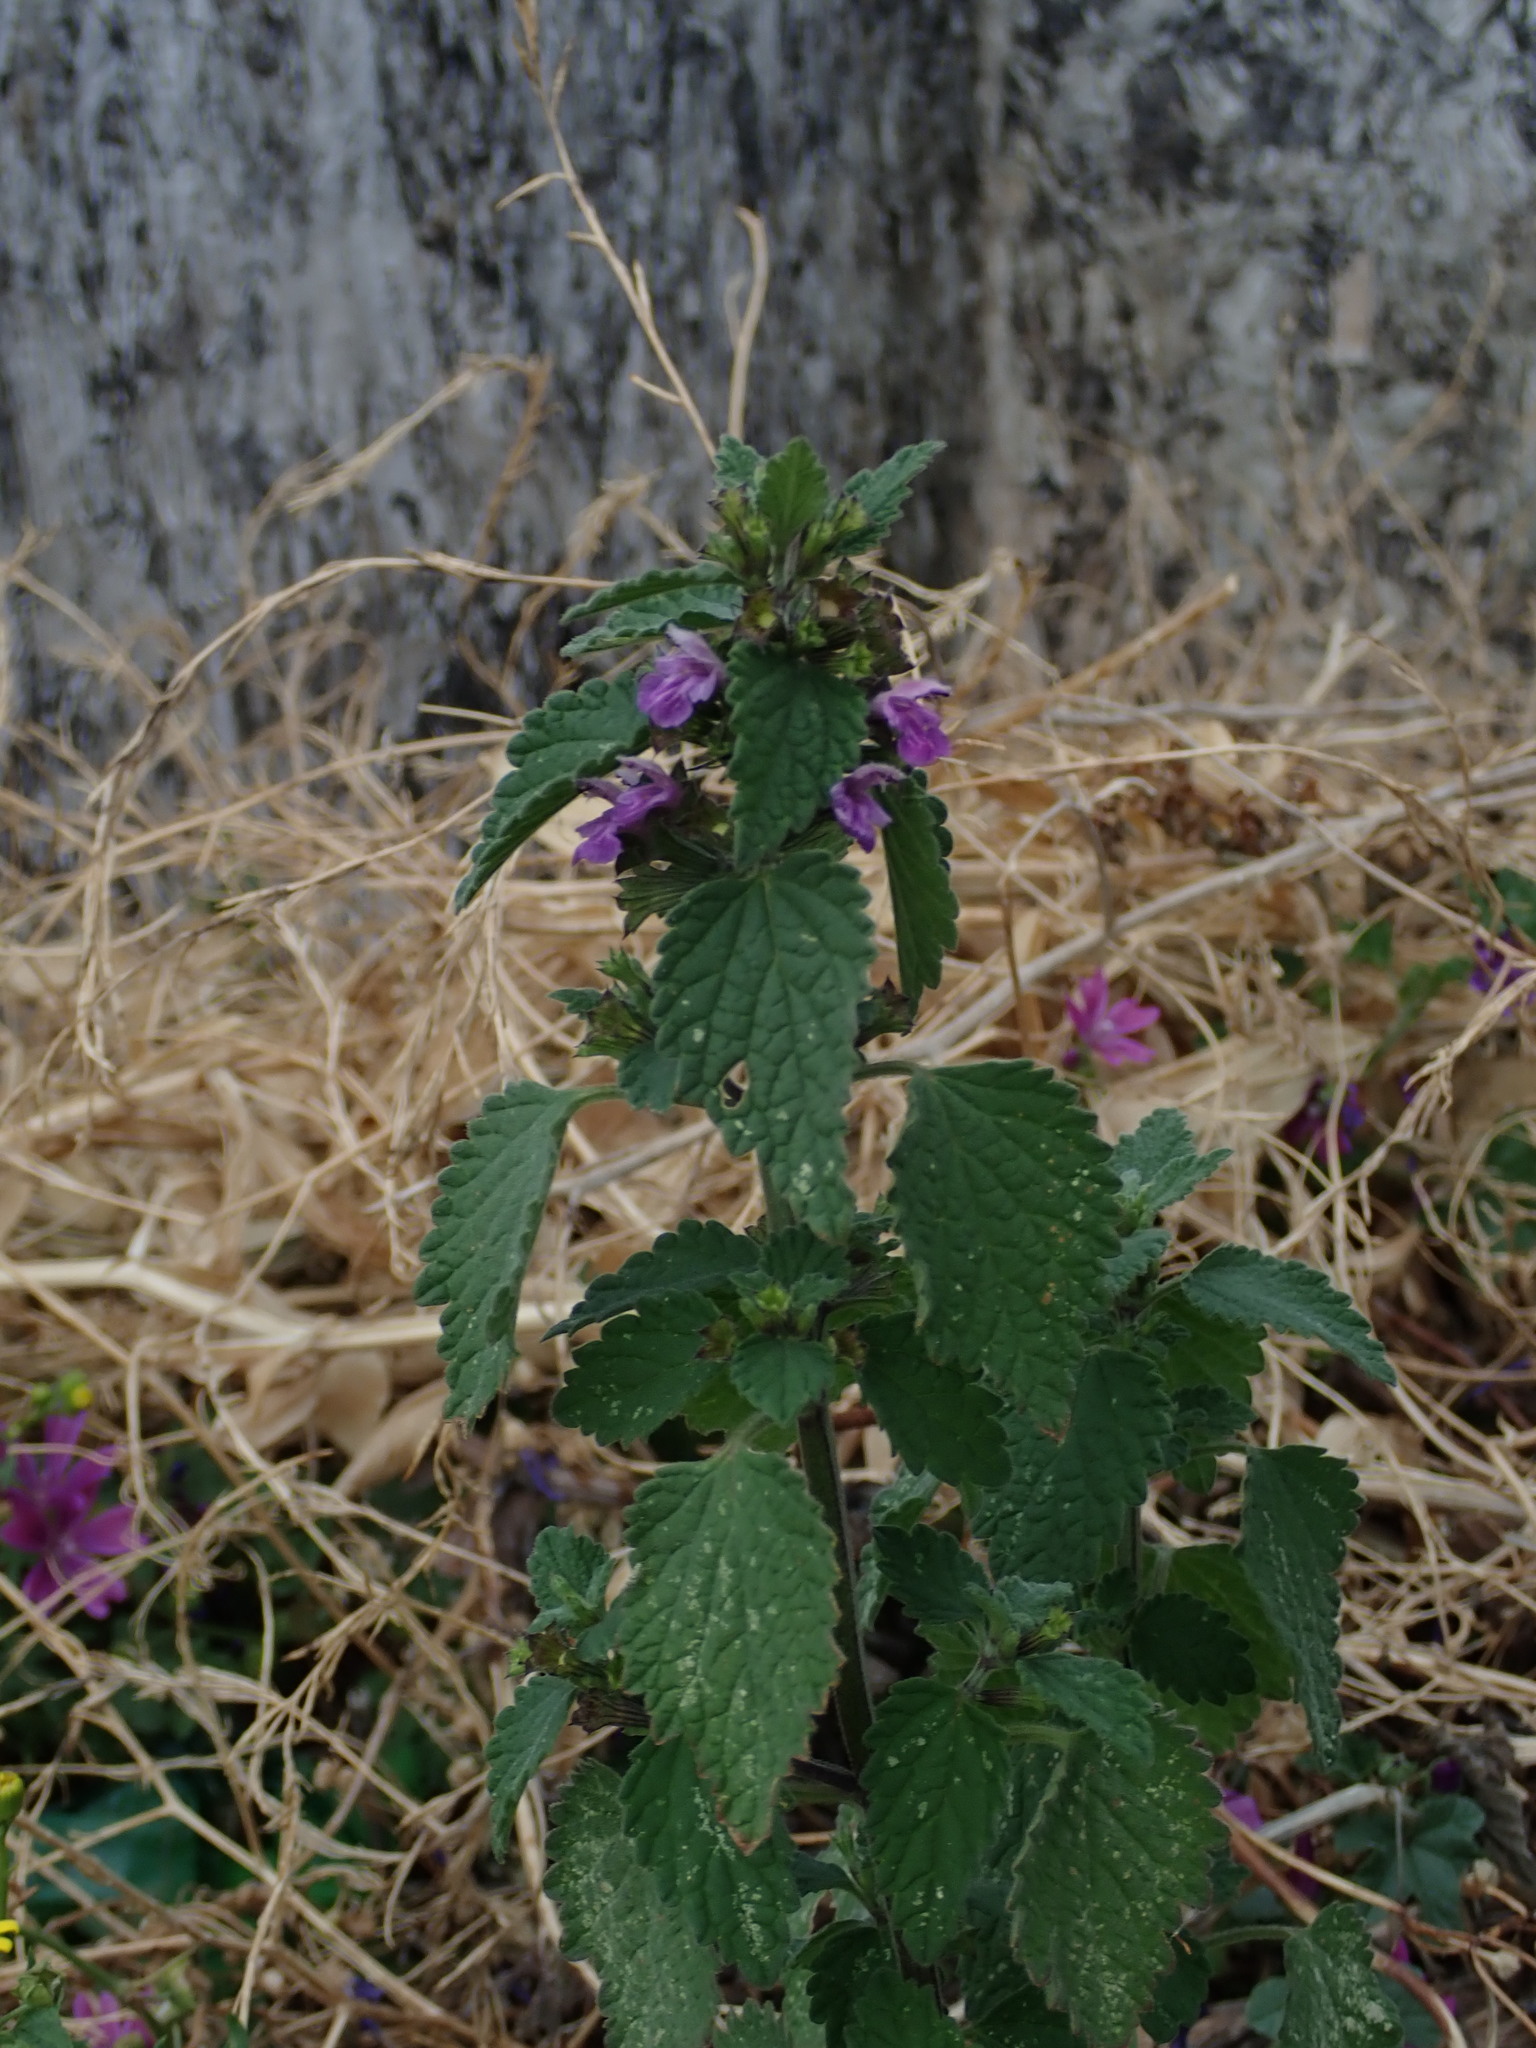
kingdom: Plantae
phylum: Tracheophyta
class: Magnoliopsida
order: Lamiales
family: Lamiaceae
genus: Ballota
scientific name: Ballota nigra
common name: Black horehound
